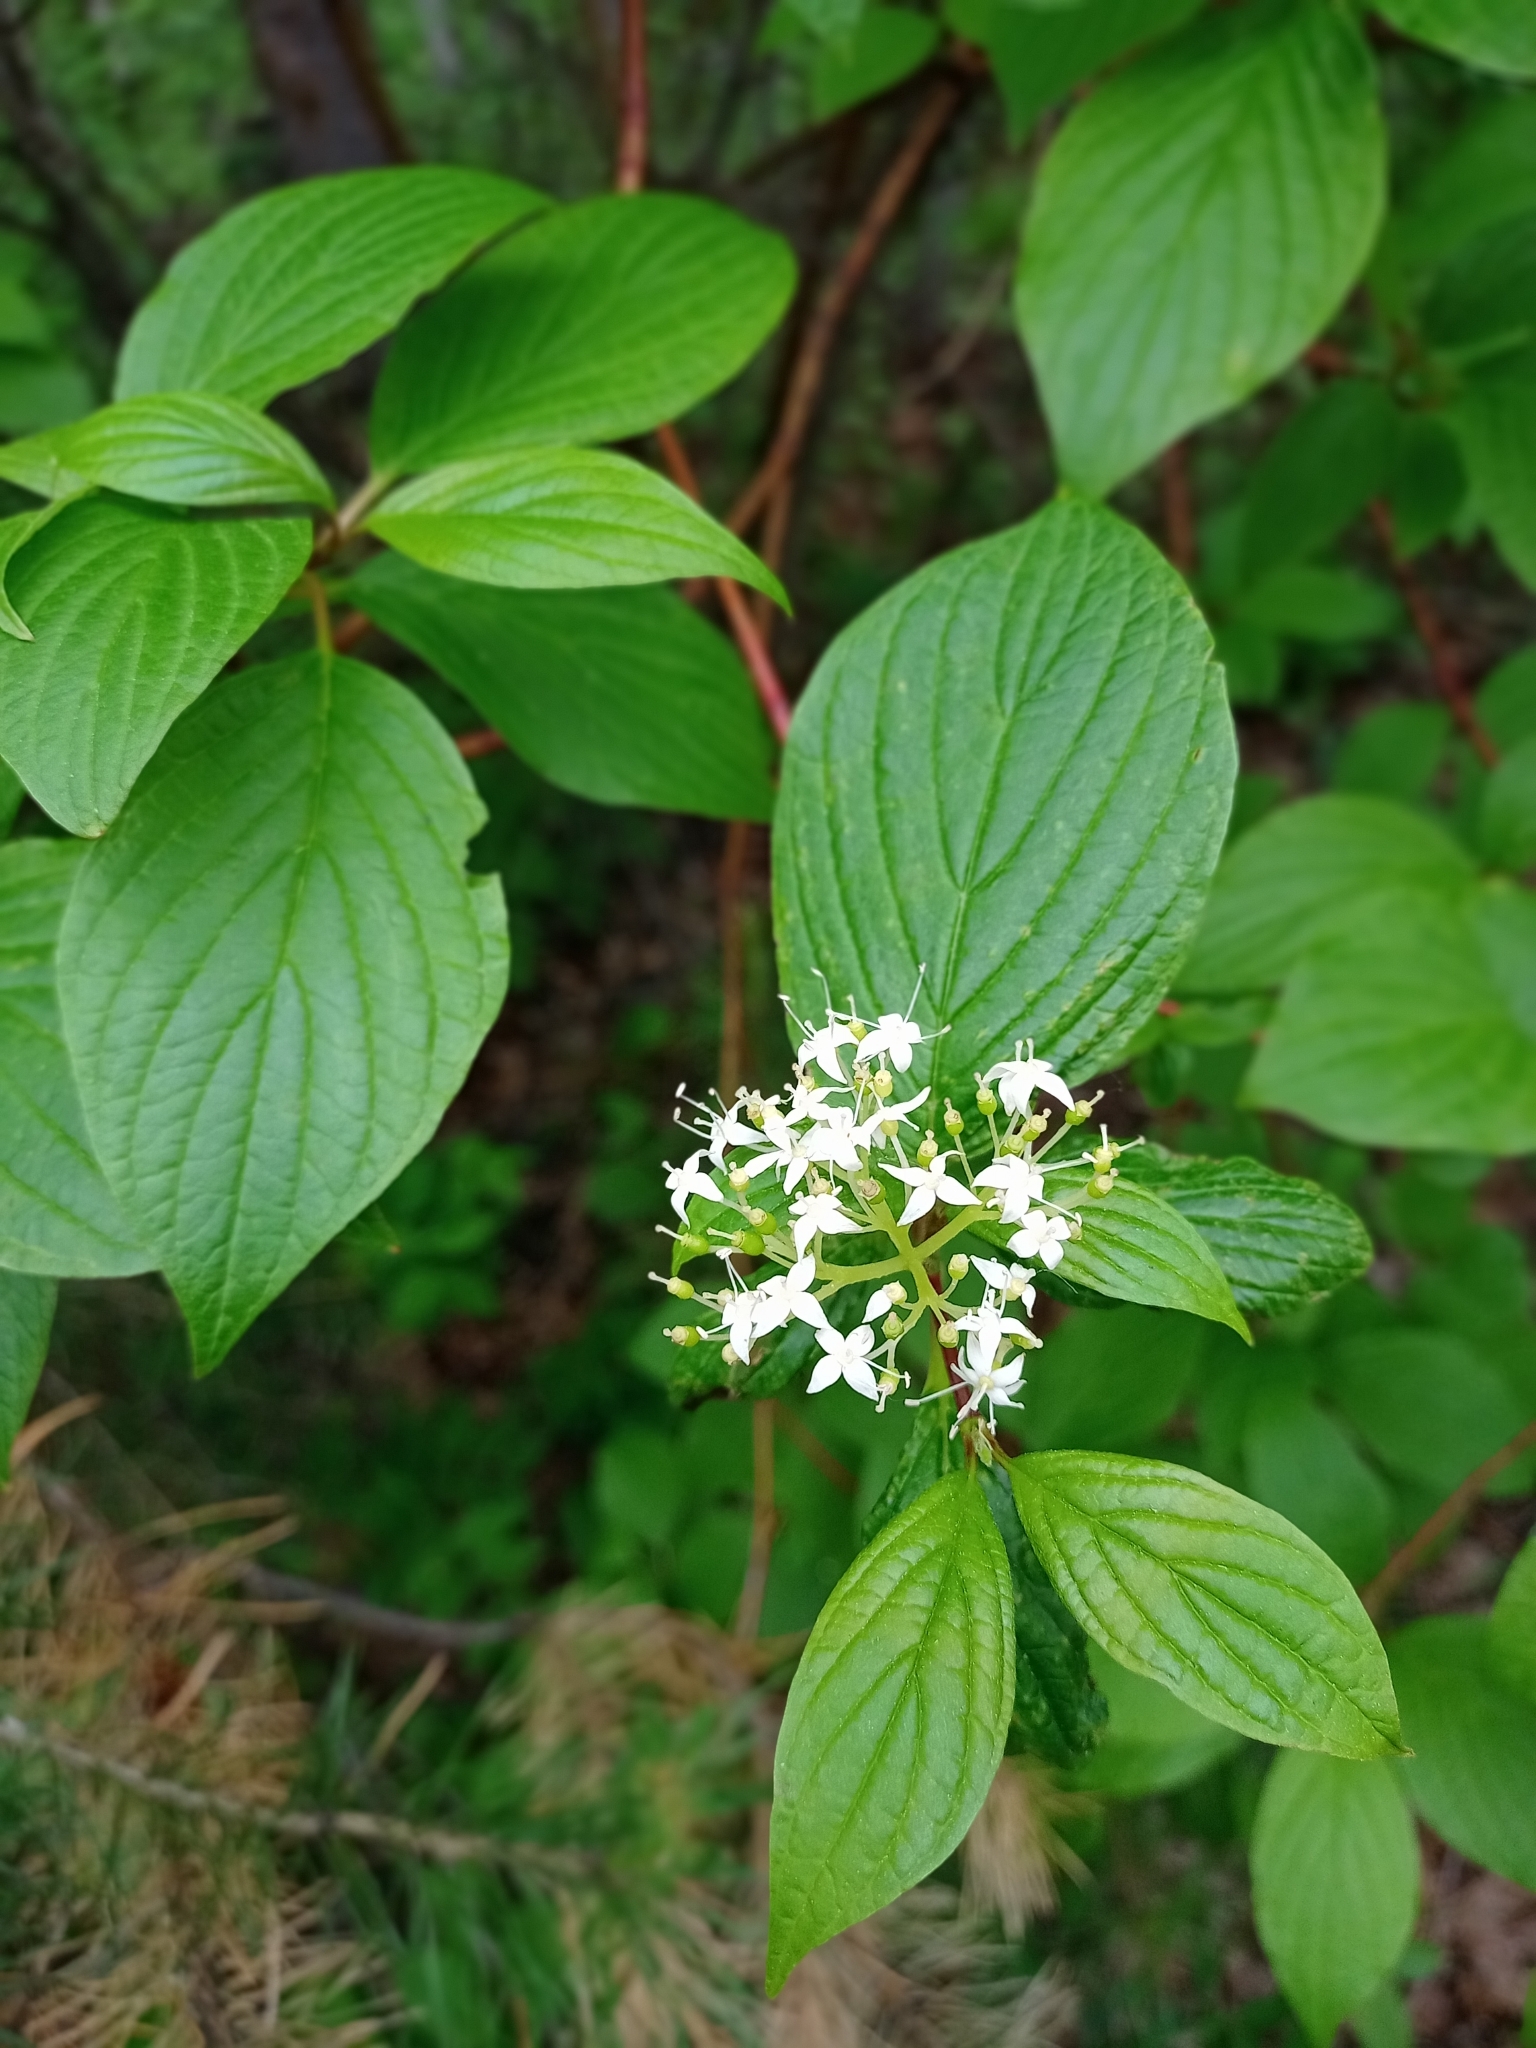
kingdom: Plantae
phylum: Tracheophyta
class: Magnoliopsida
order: Cornales
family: Cornaceae
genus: Cornus
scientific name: Cornus alba
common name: White dogwood
